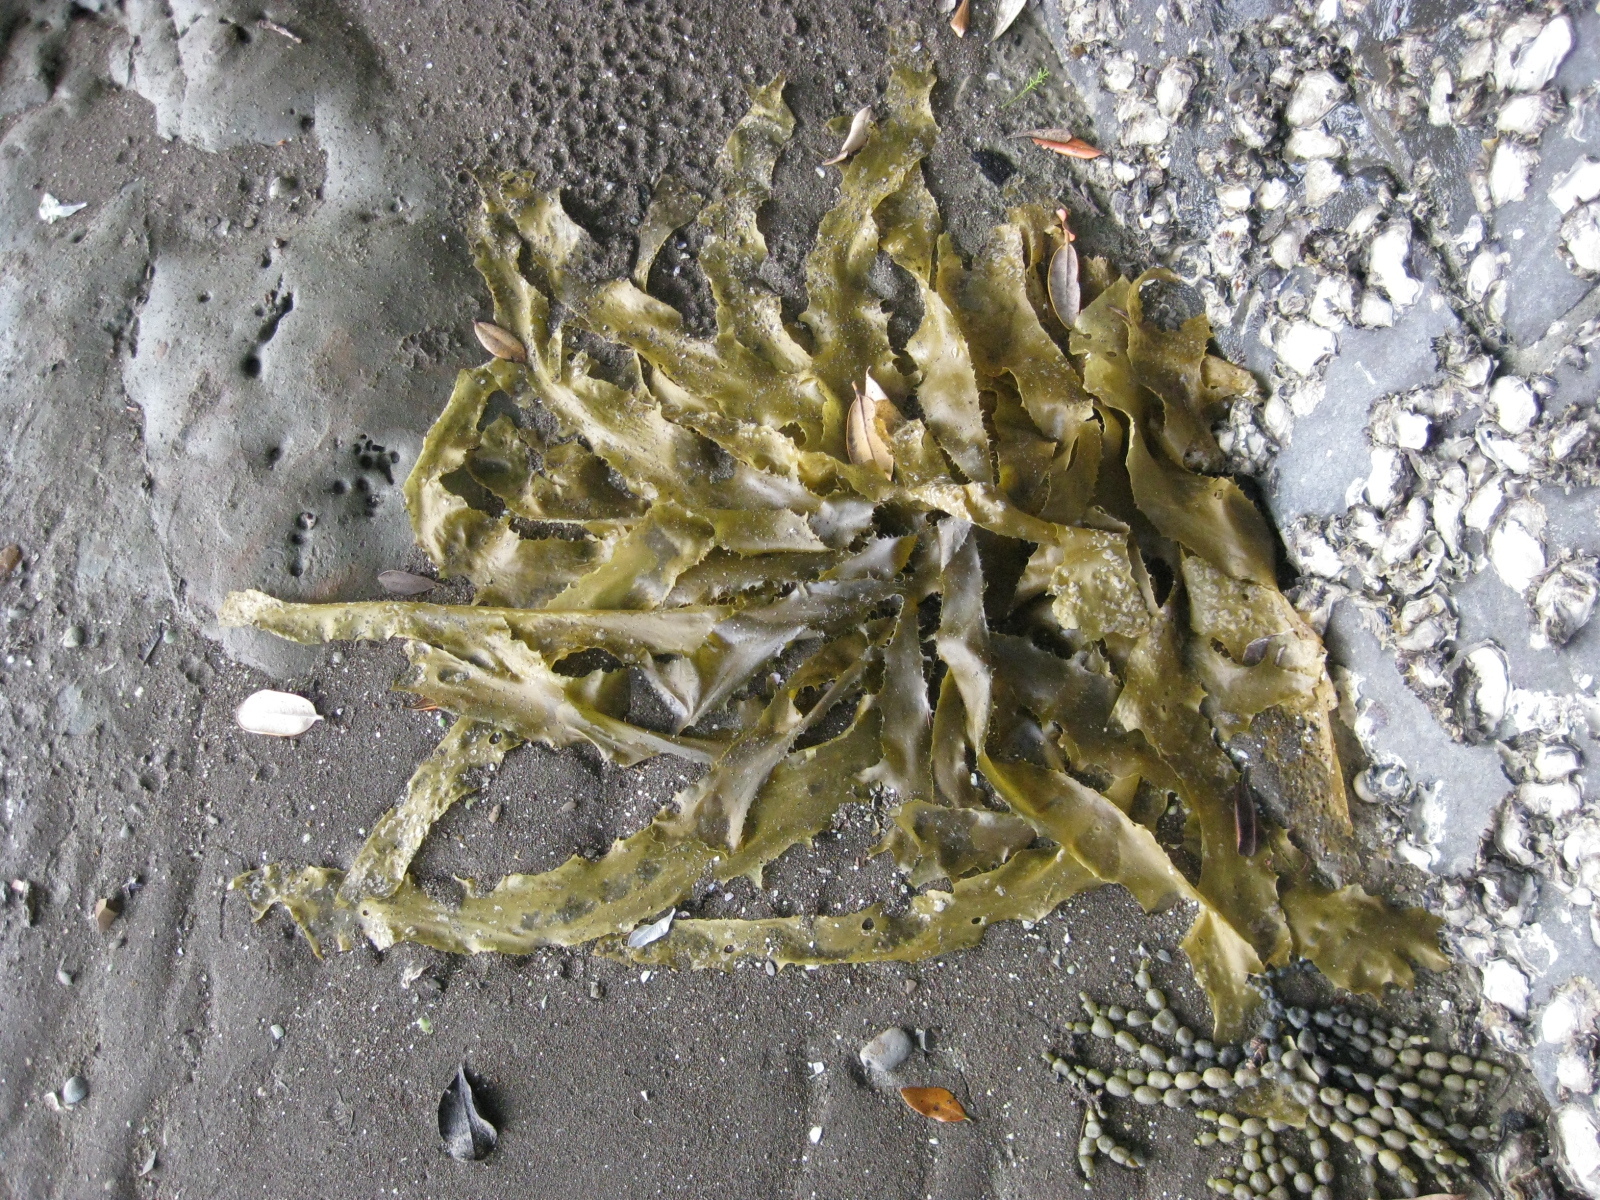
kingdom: Chromista
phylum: Ochrophyta
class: Phaeophyceae
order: Laminariales
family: Lessoniaceae
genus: Ecklonia
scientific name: Ecklonia radiata
